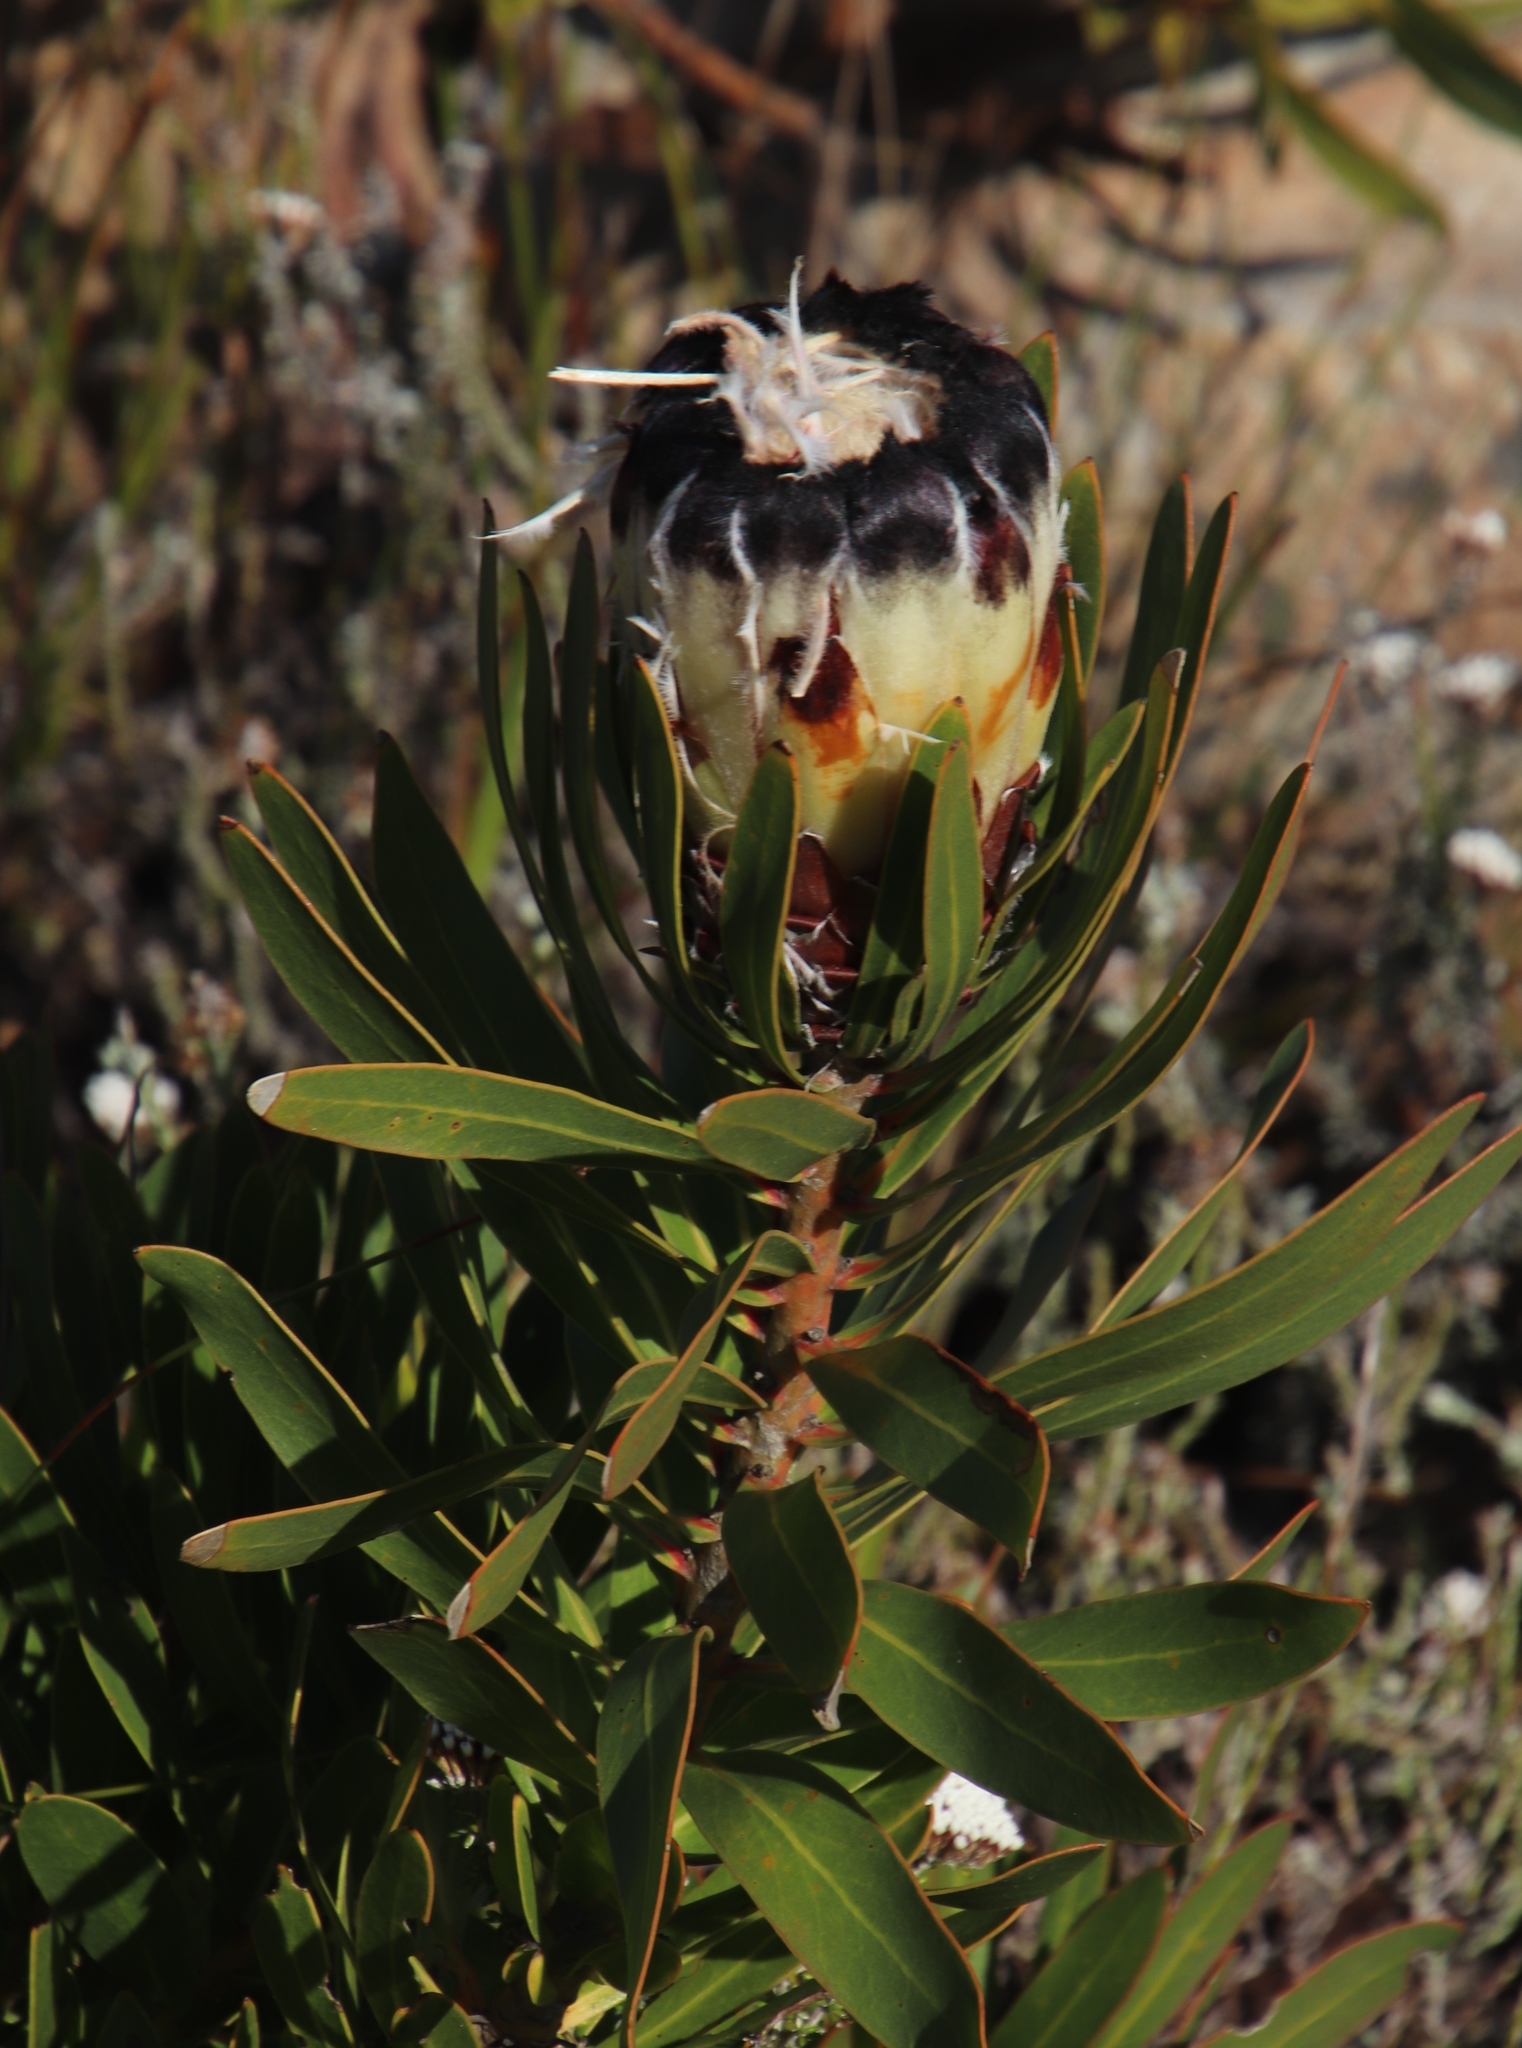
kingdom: Plantae
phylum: Tracheophyta
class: Magnoliopsida
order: Proteales
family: Proteaceae
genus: Protea
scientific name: Protea lepidocarpodendron
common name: Black-bearded protea
